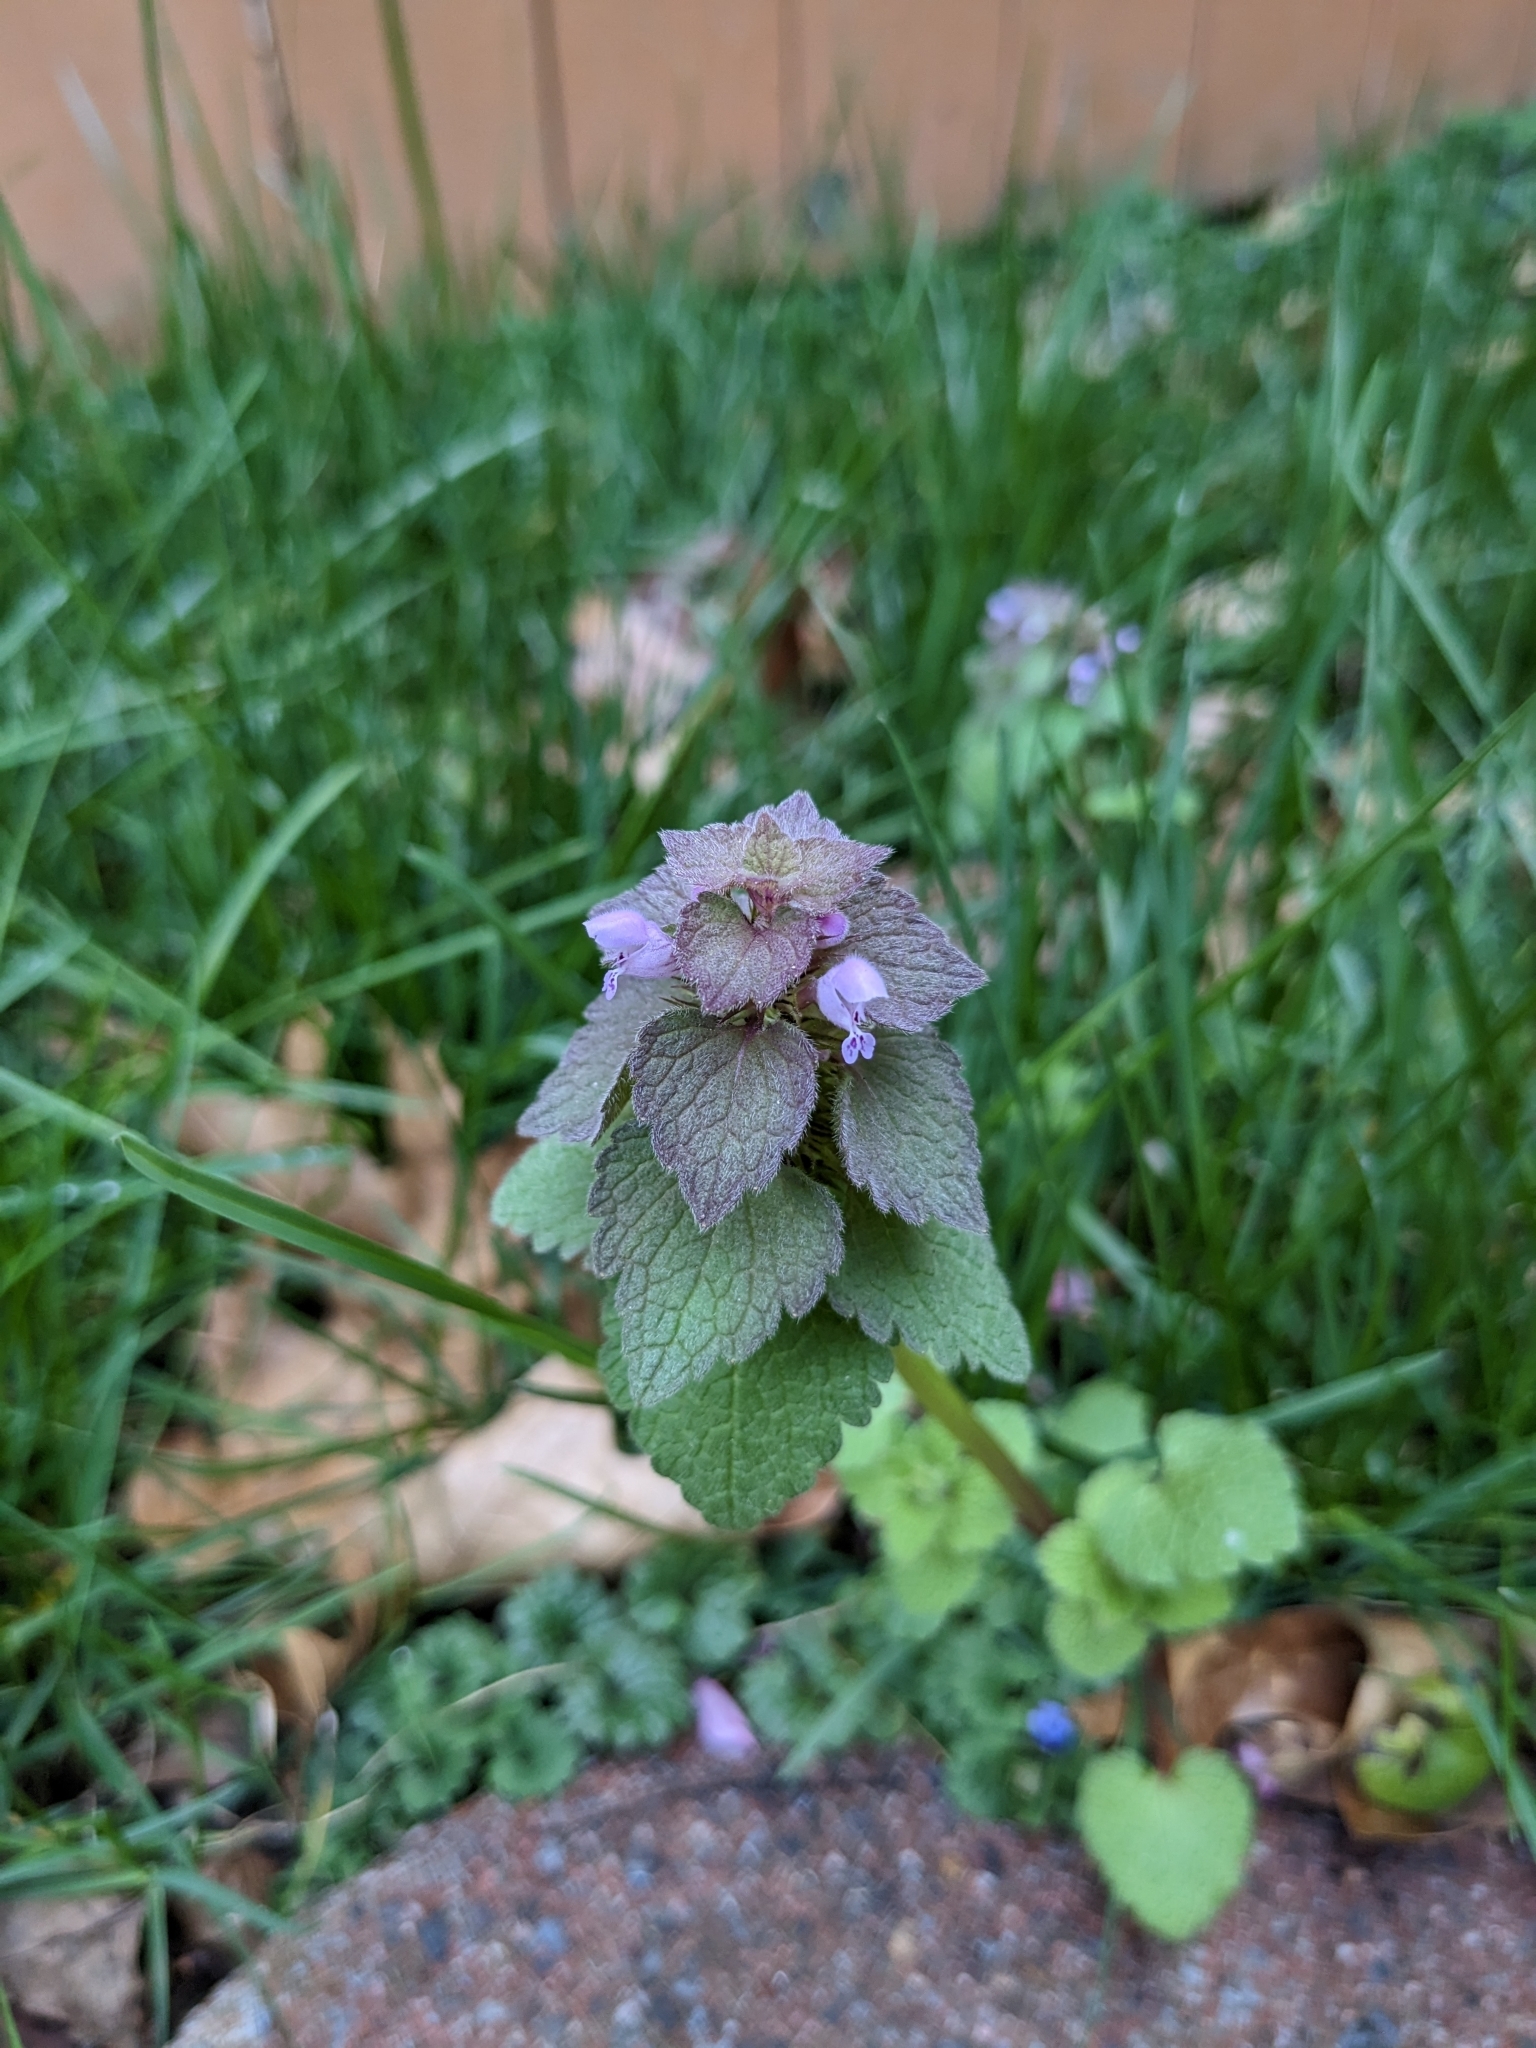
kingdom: Plantae
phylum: Tracheophyta
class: Magnoliopsida
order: Lamiales
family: Lamiaceae
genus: Lamium
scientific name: Lamium purpureum
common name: Red dead-nettle
